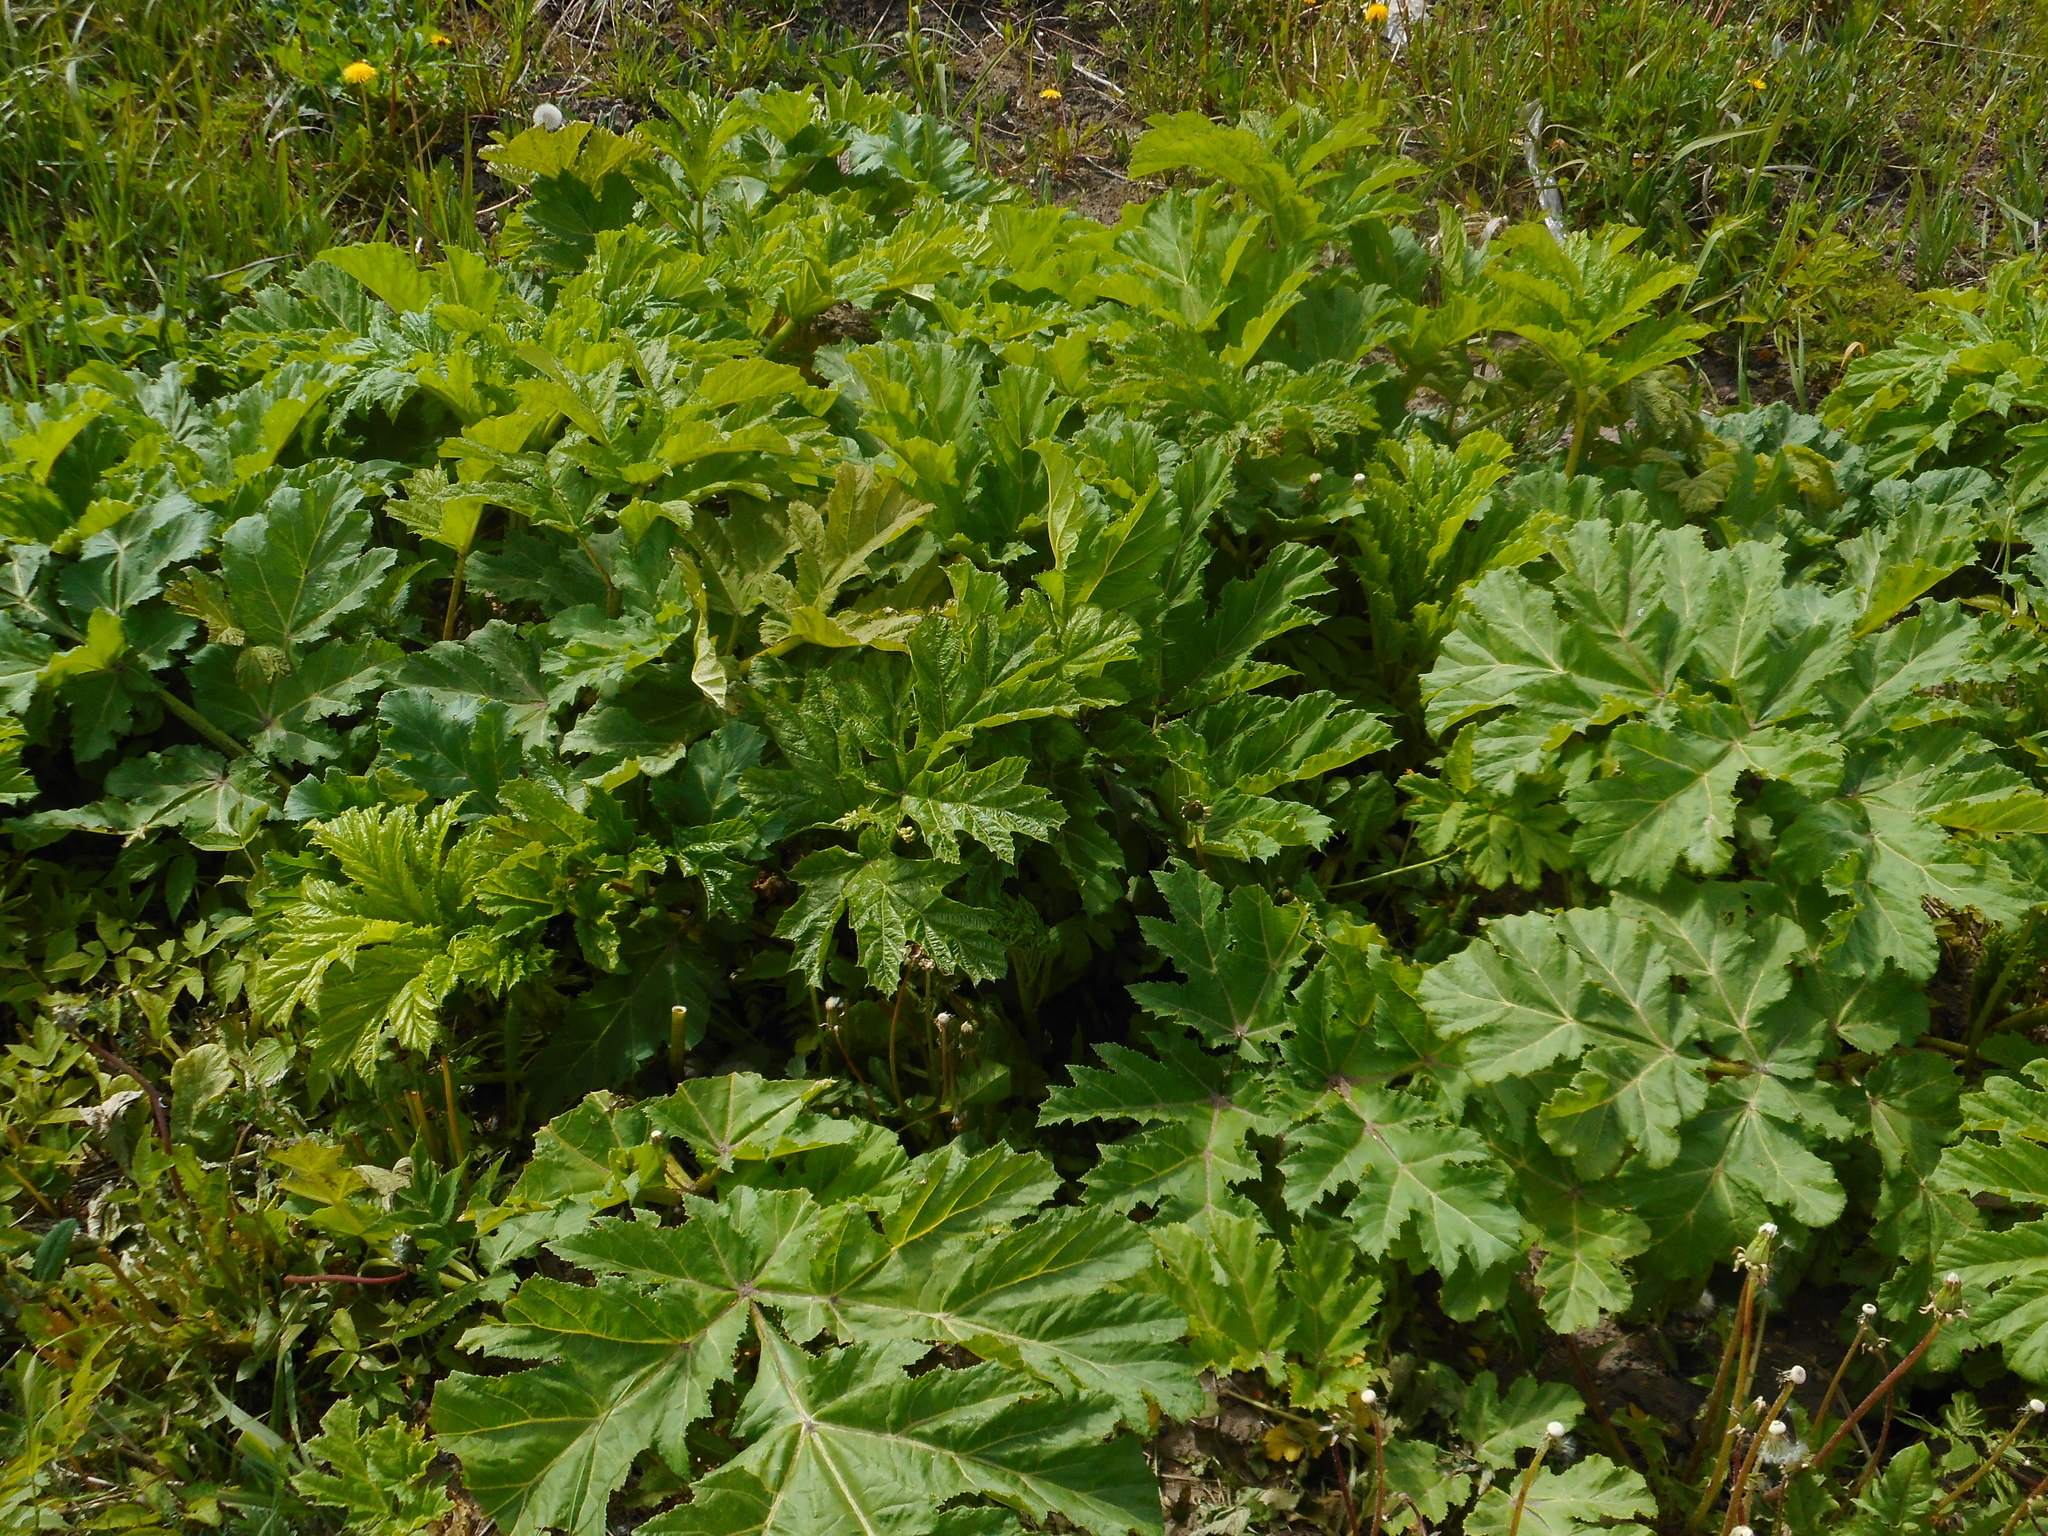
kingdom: Plantae
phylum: Tracheophyta
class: Magnoliopsida
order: Apiales
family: Apiaceae
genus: Heracleum
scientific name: Heracleum sosnowskyi
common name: Sosnowsky's hogweed
